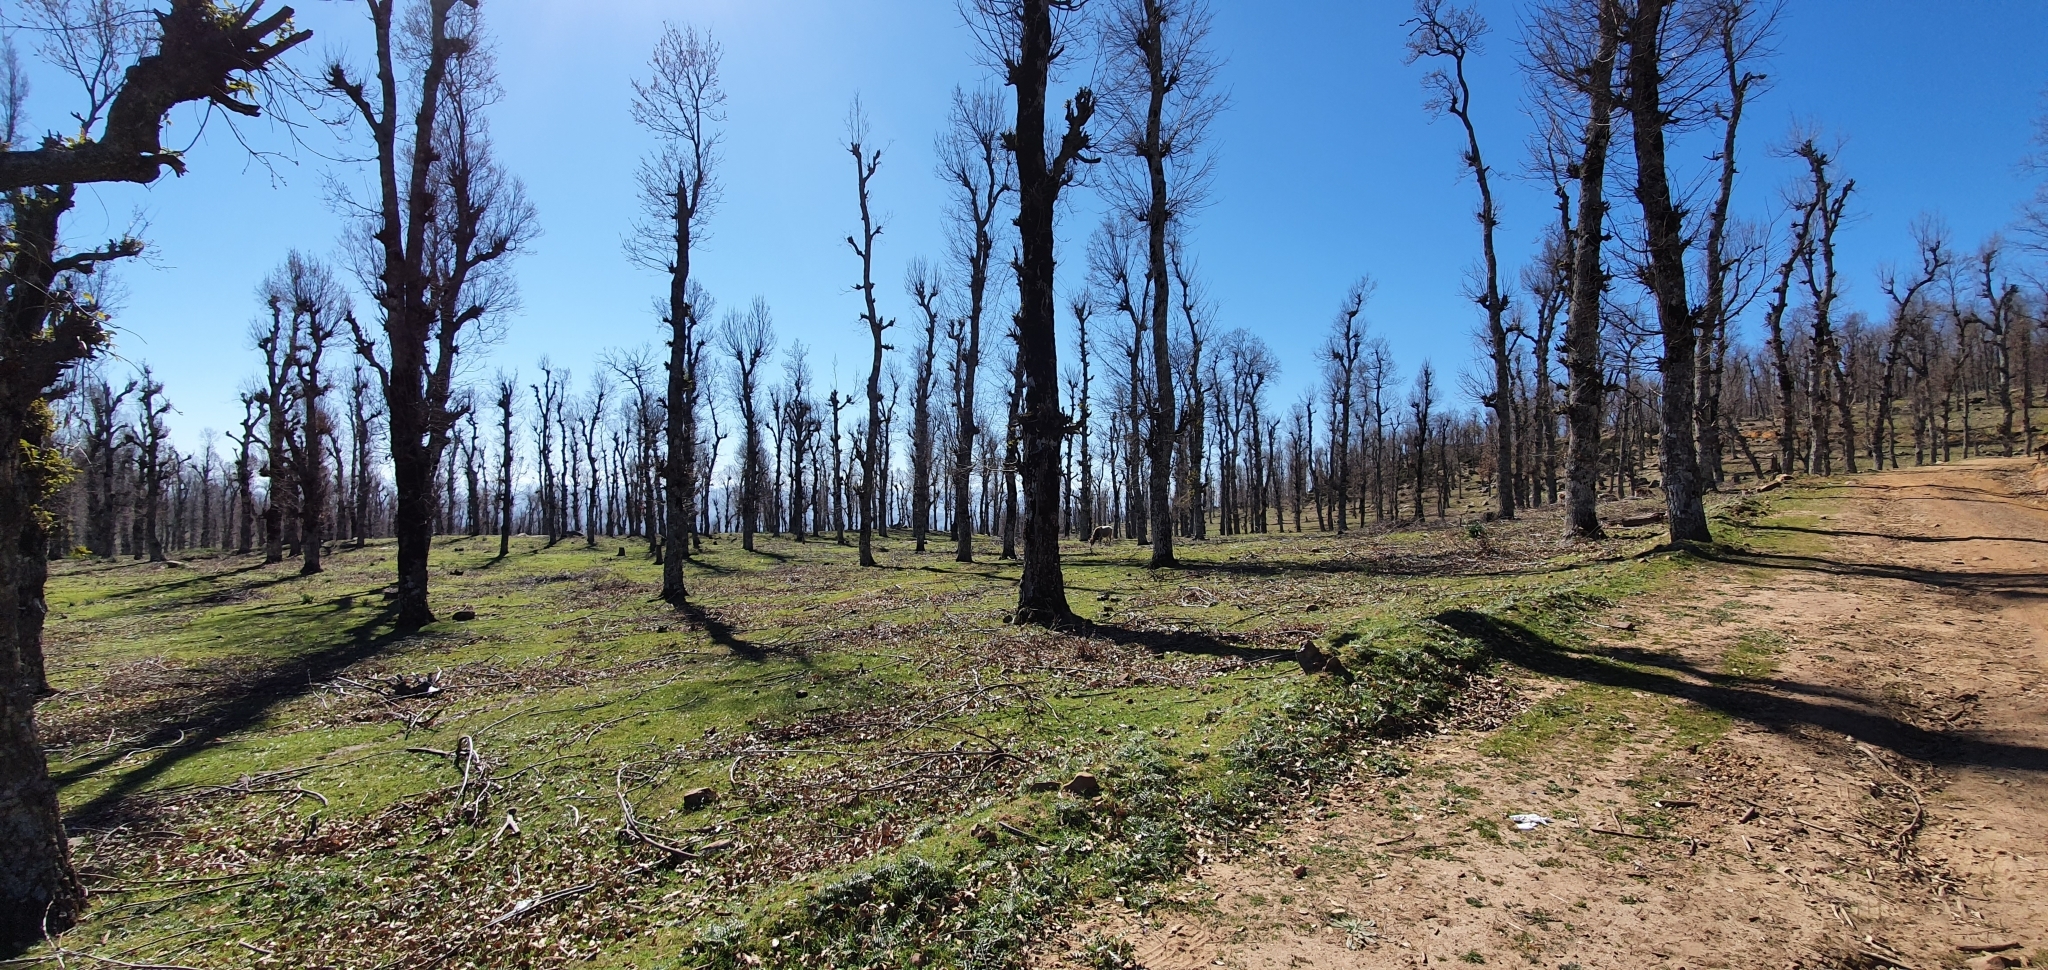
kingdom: Plantae
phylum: Tracheophyta
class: Magnoliopsida
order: Fagales
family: Fagaceae
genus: Quercus
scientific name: Quercus afares
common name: African oak
